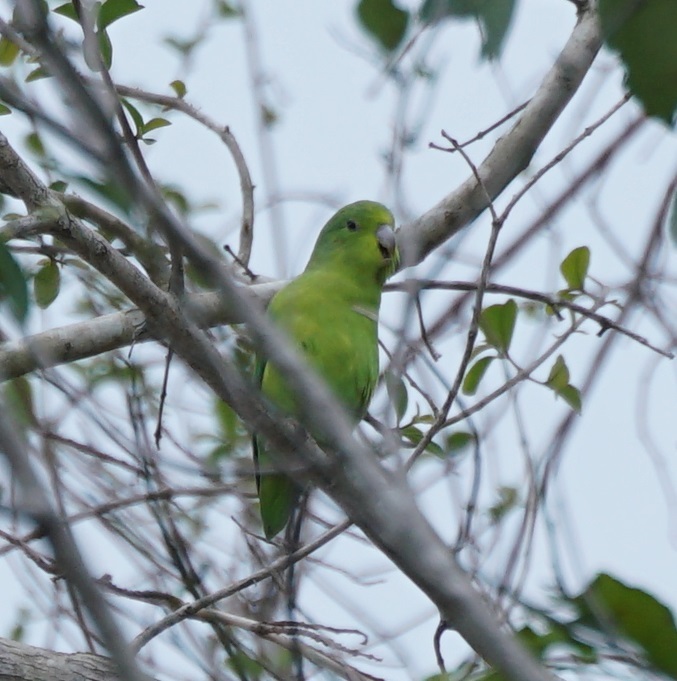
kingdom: Animalia
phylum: Chordata
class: Aves
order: Psittaciformes
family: Psittacidae
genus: Forpus
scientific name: Forpus xanthopterygius
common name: Blue-winged parrotlet
